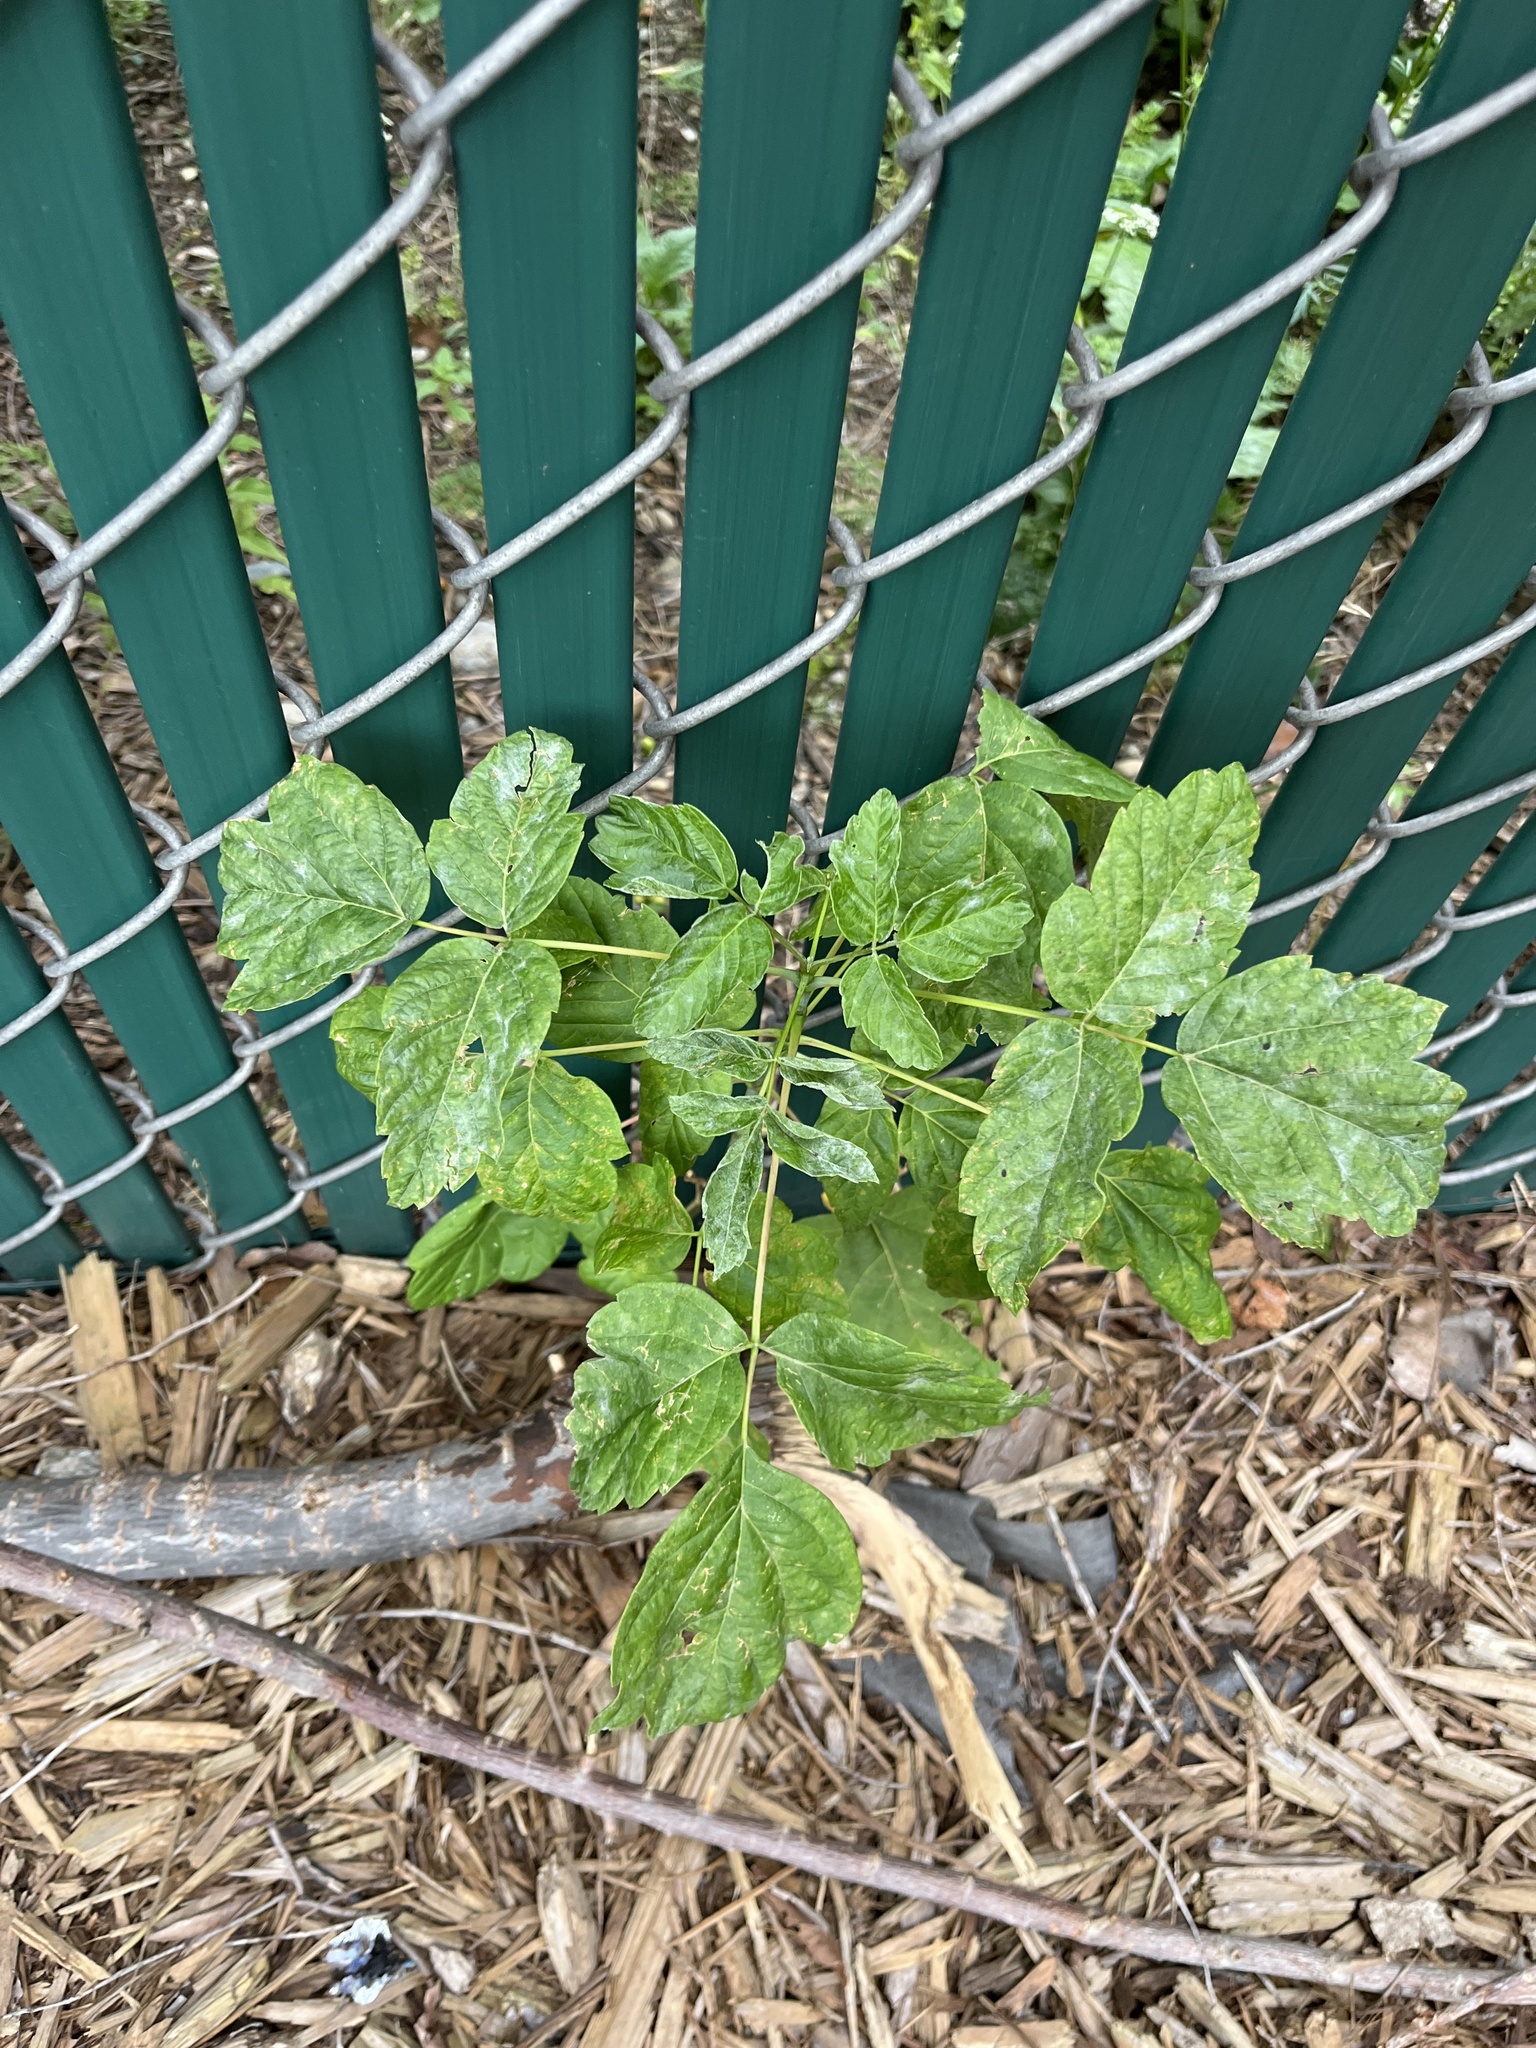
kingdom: Plantae
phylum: Tracheophyta
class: Magnoliopsida
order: Sapindales
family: Sapindaceae
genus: Acer
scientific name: Acer negundo
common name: Ashleaf maple
